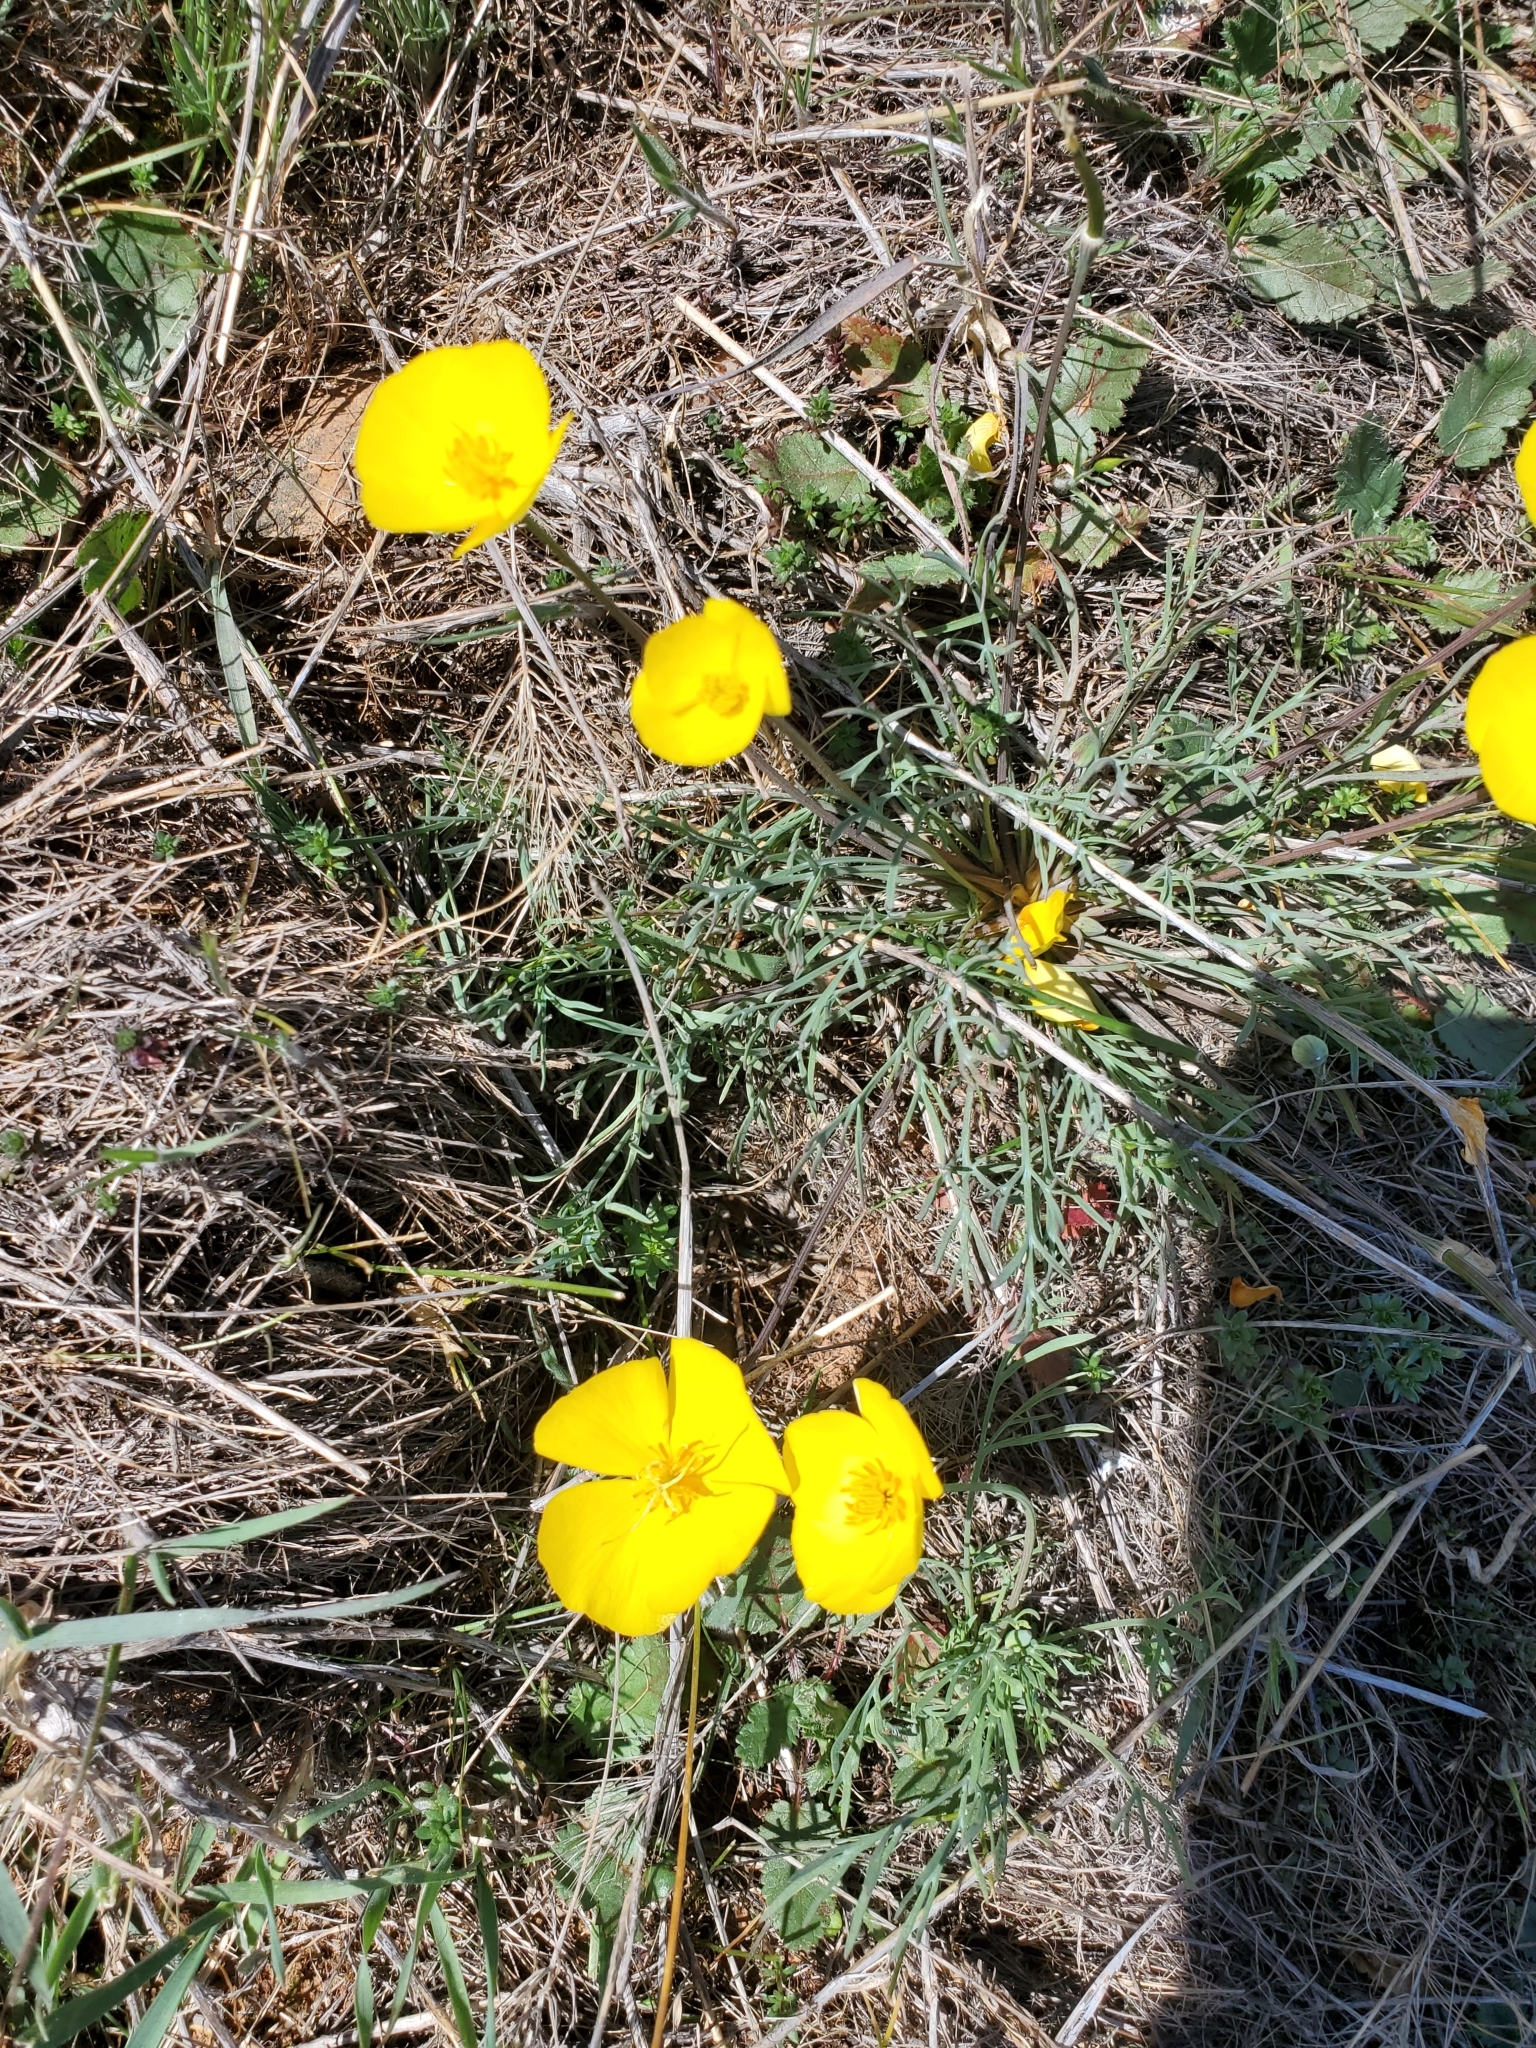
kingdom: Plantae
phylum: Tracheophyta
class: Magnoliopsida
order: Ranunculales
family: Papaveraceae
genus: Eschscholzia
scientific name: Eschscholzia lobbii
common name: Frying-pans
